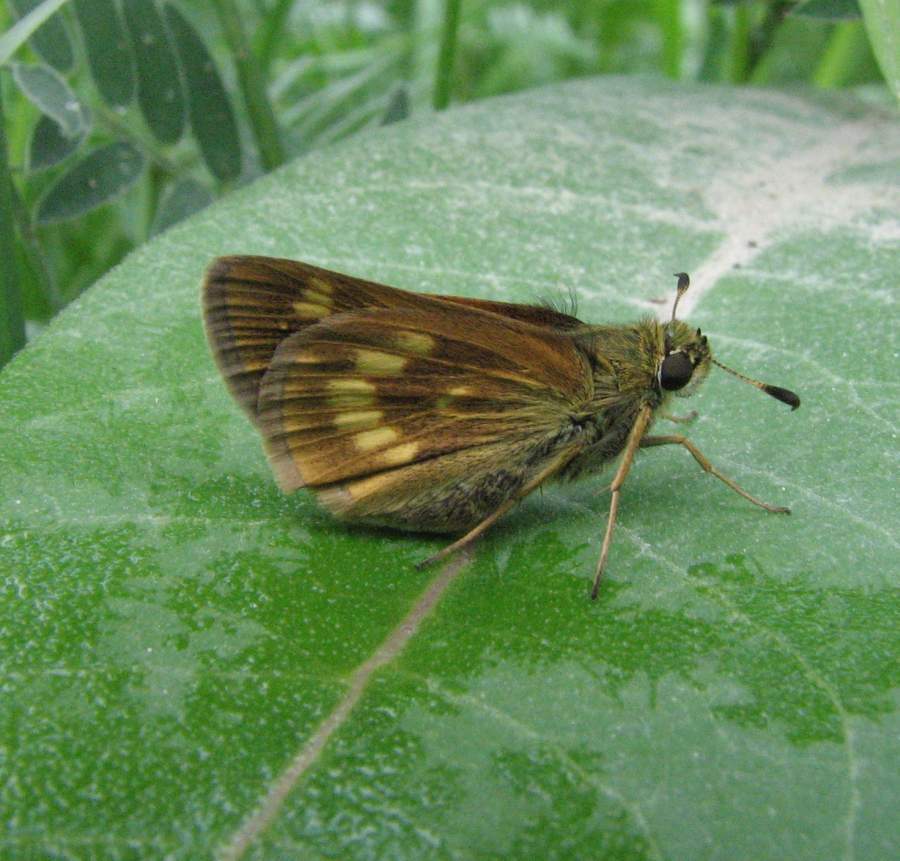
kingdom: Animalia
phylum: Arthropoda
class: Insecta
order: Lepidoptera
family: Hesperiidae
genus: Polites
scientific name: Polites mystic
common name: Long dash
